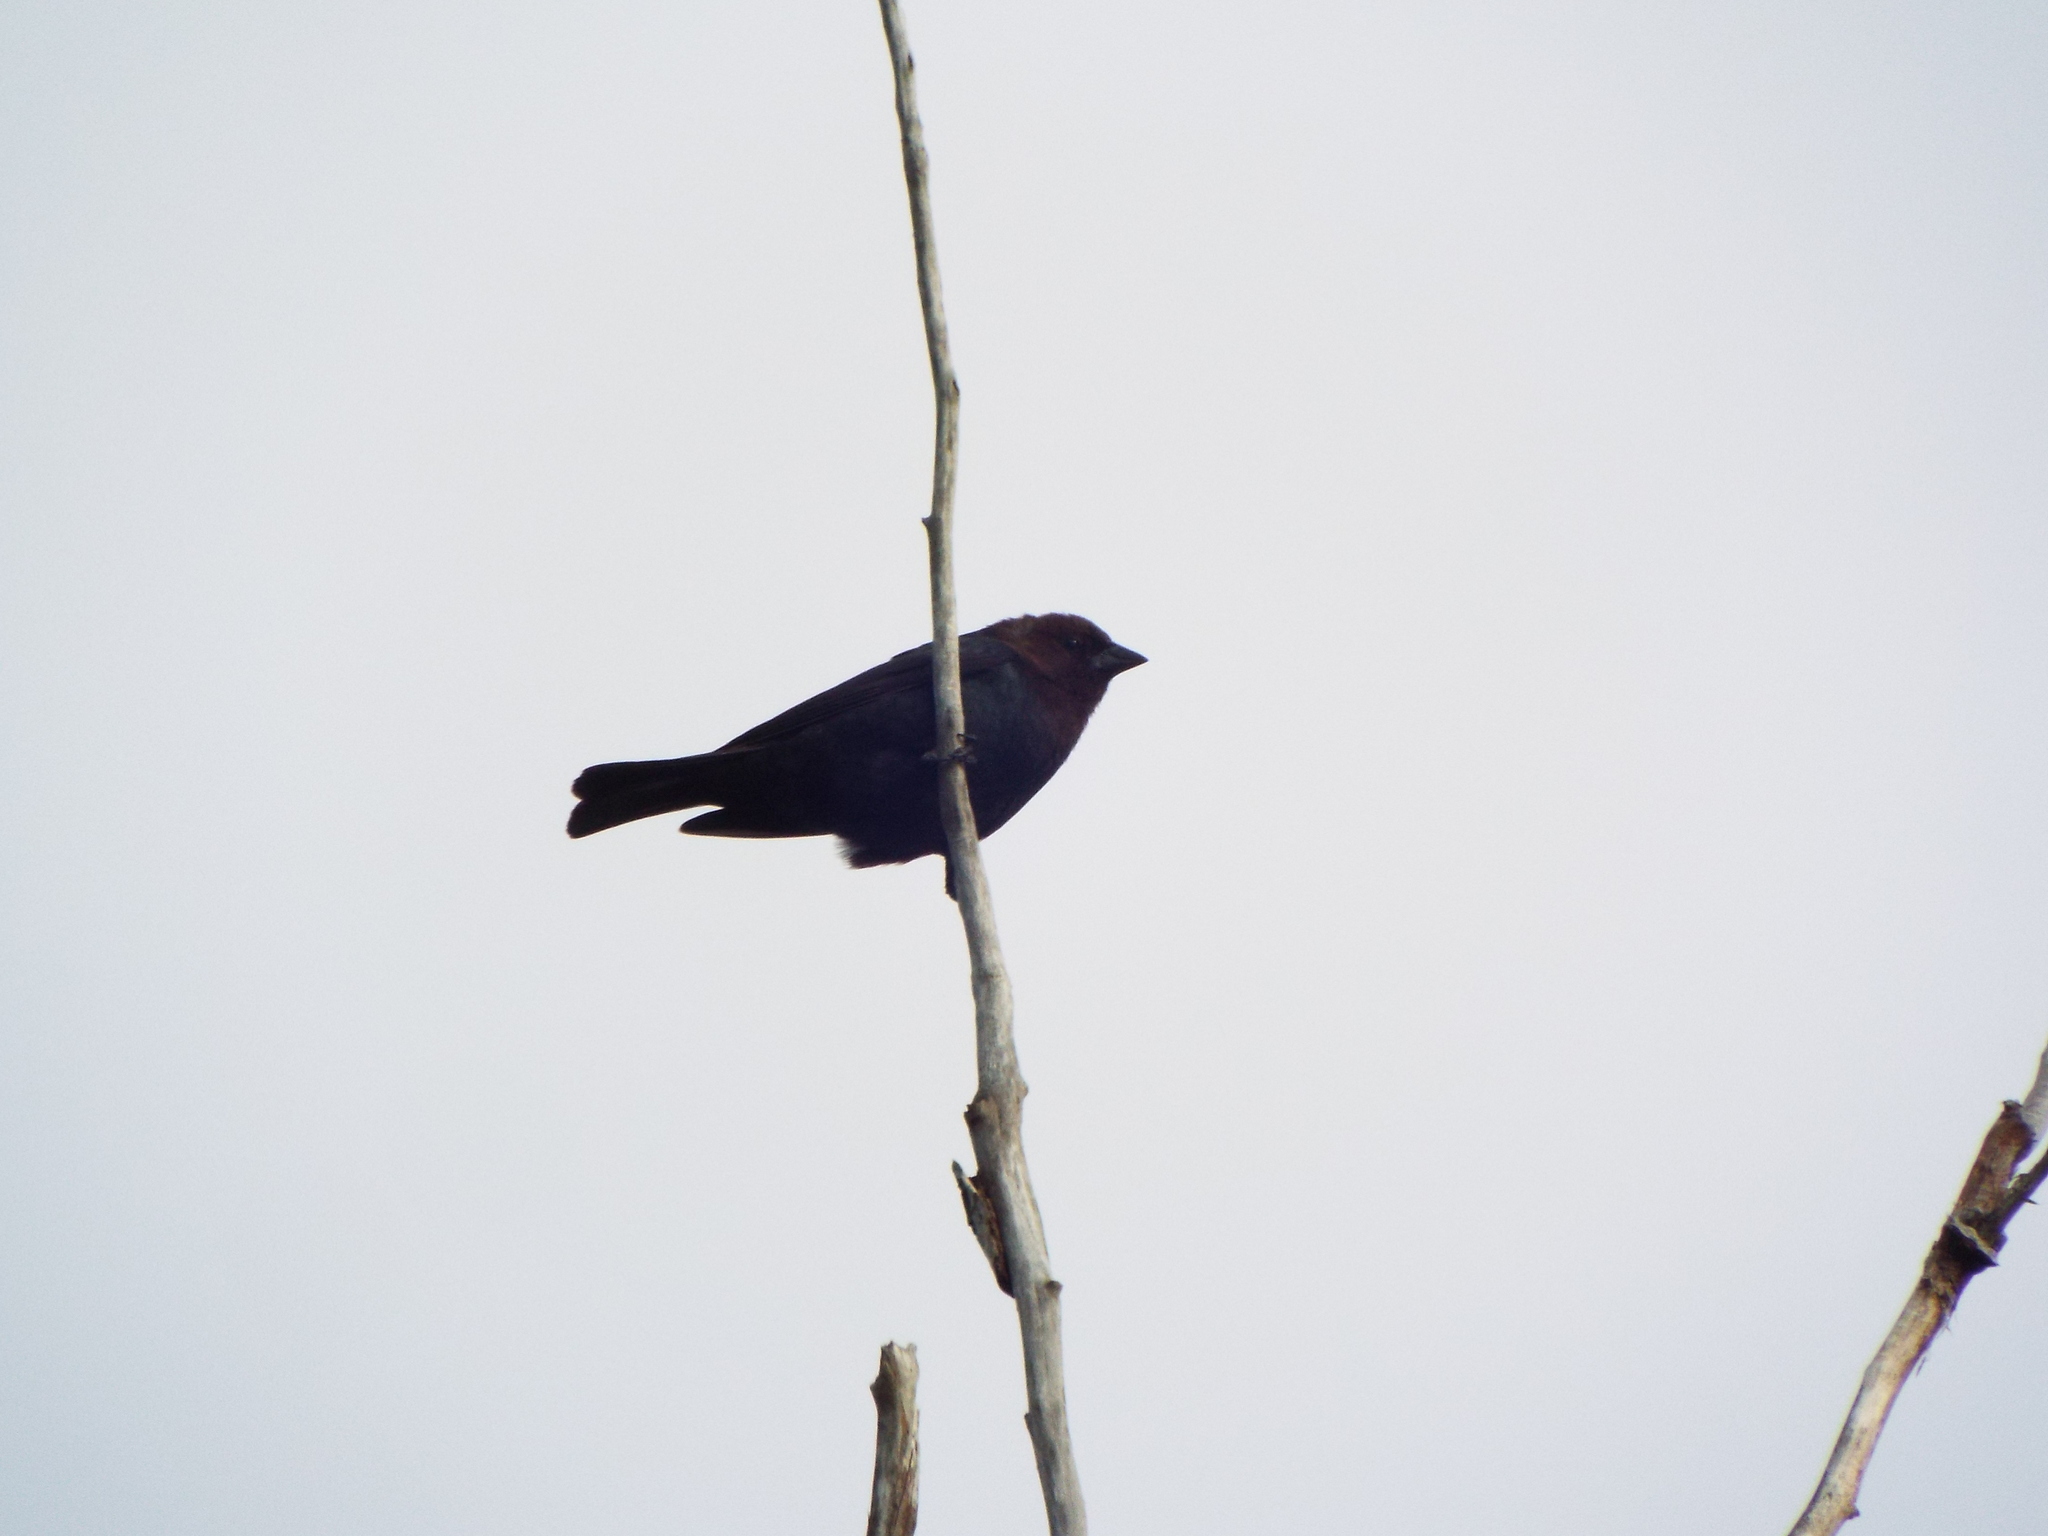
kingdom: Animalia
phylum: Chordata
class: Aves
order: Passeriformes
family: Icteridae
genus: Molothrus
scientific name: Molothrus ater
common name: Brown-headed cowbird
